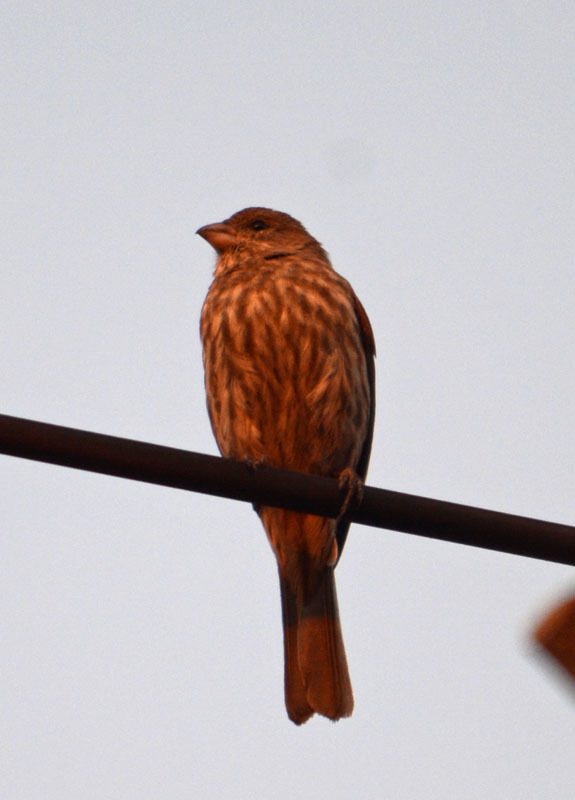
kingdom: Animalia
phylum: Chordata
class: Aves
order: Passeriformes
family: Fringillidae
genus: Haemorhous
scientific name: Haemorhous mexicanus
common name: House finch
